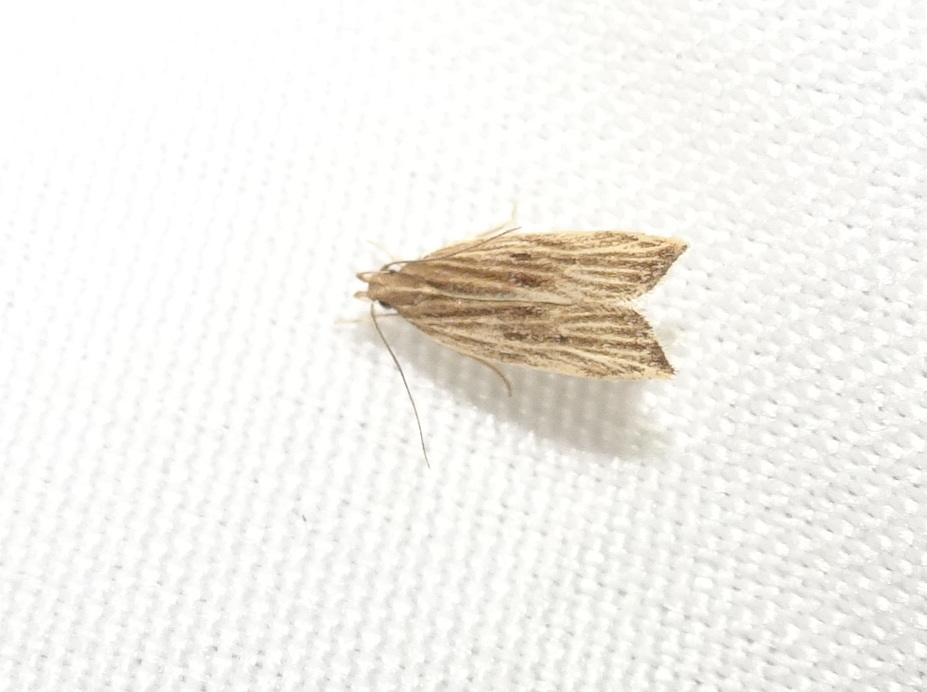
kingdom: Animalia
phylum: Arthropoda
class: Insecta
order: Lepidoptera
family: Gelechiidae
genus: Helcystogramma
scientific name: Helcystogramma hystricella
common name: Lanceolate moth
